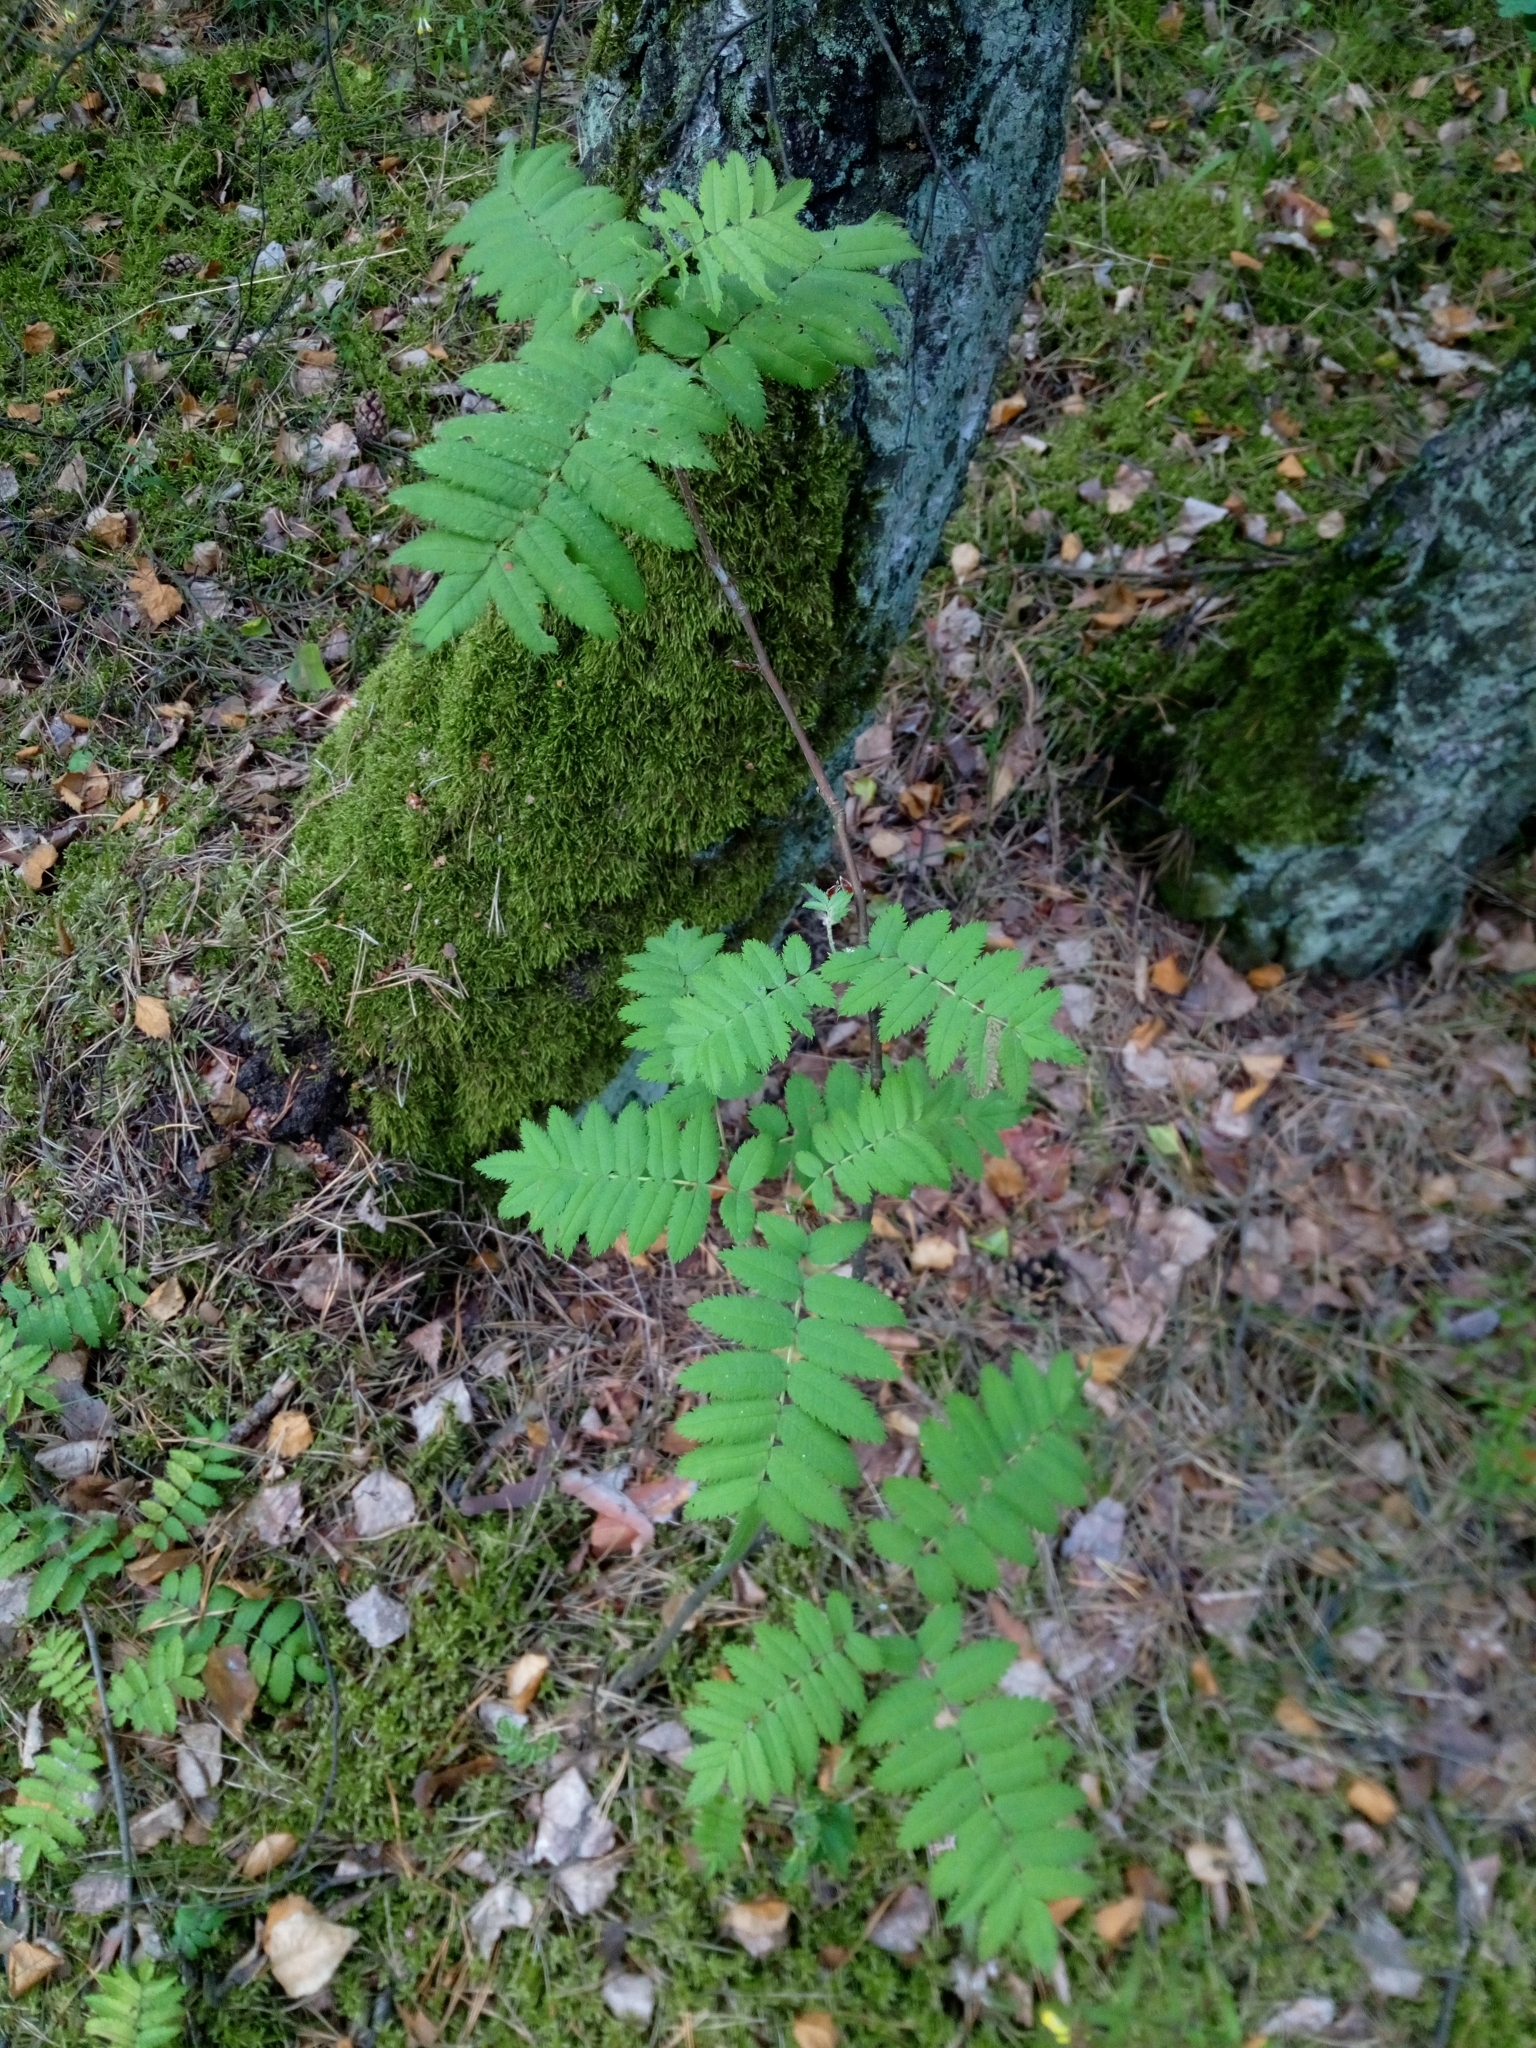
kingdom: Plantae
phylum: Tracheophyta
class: Magnoliopsida
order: Rosales
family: Rosaceae
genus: Sorbus
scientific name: Sorbus aucuparia
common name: Rowan
